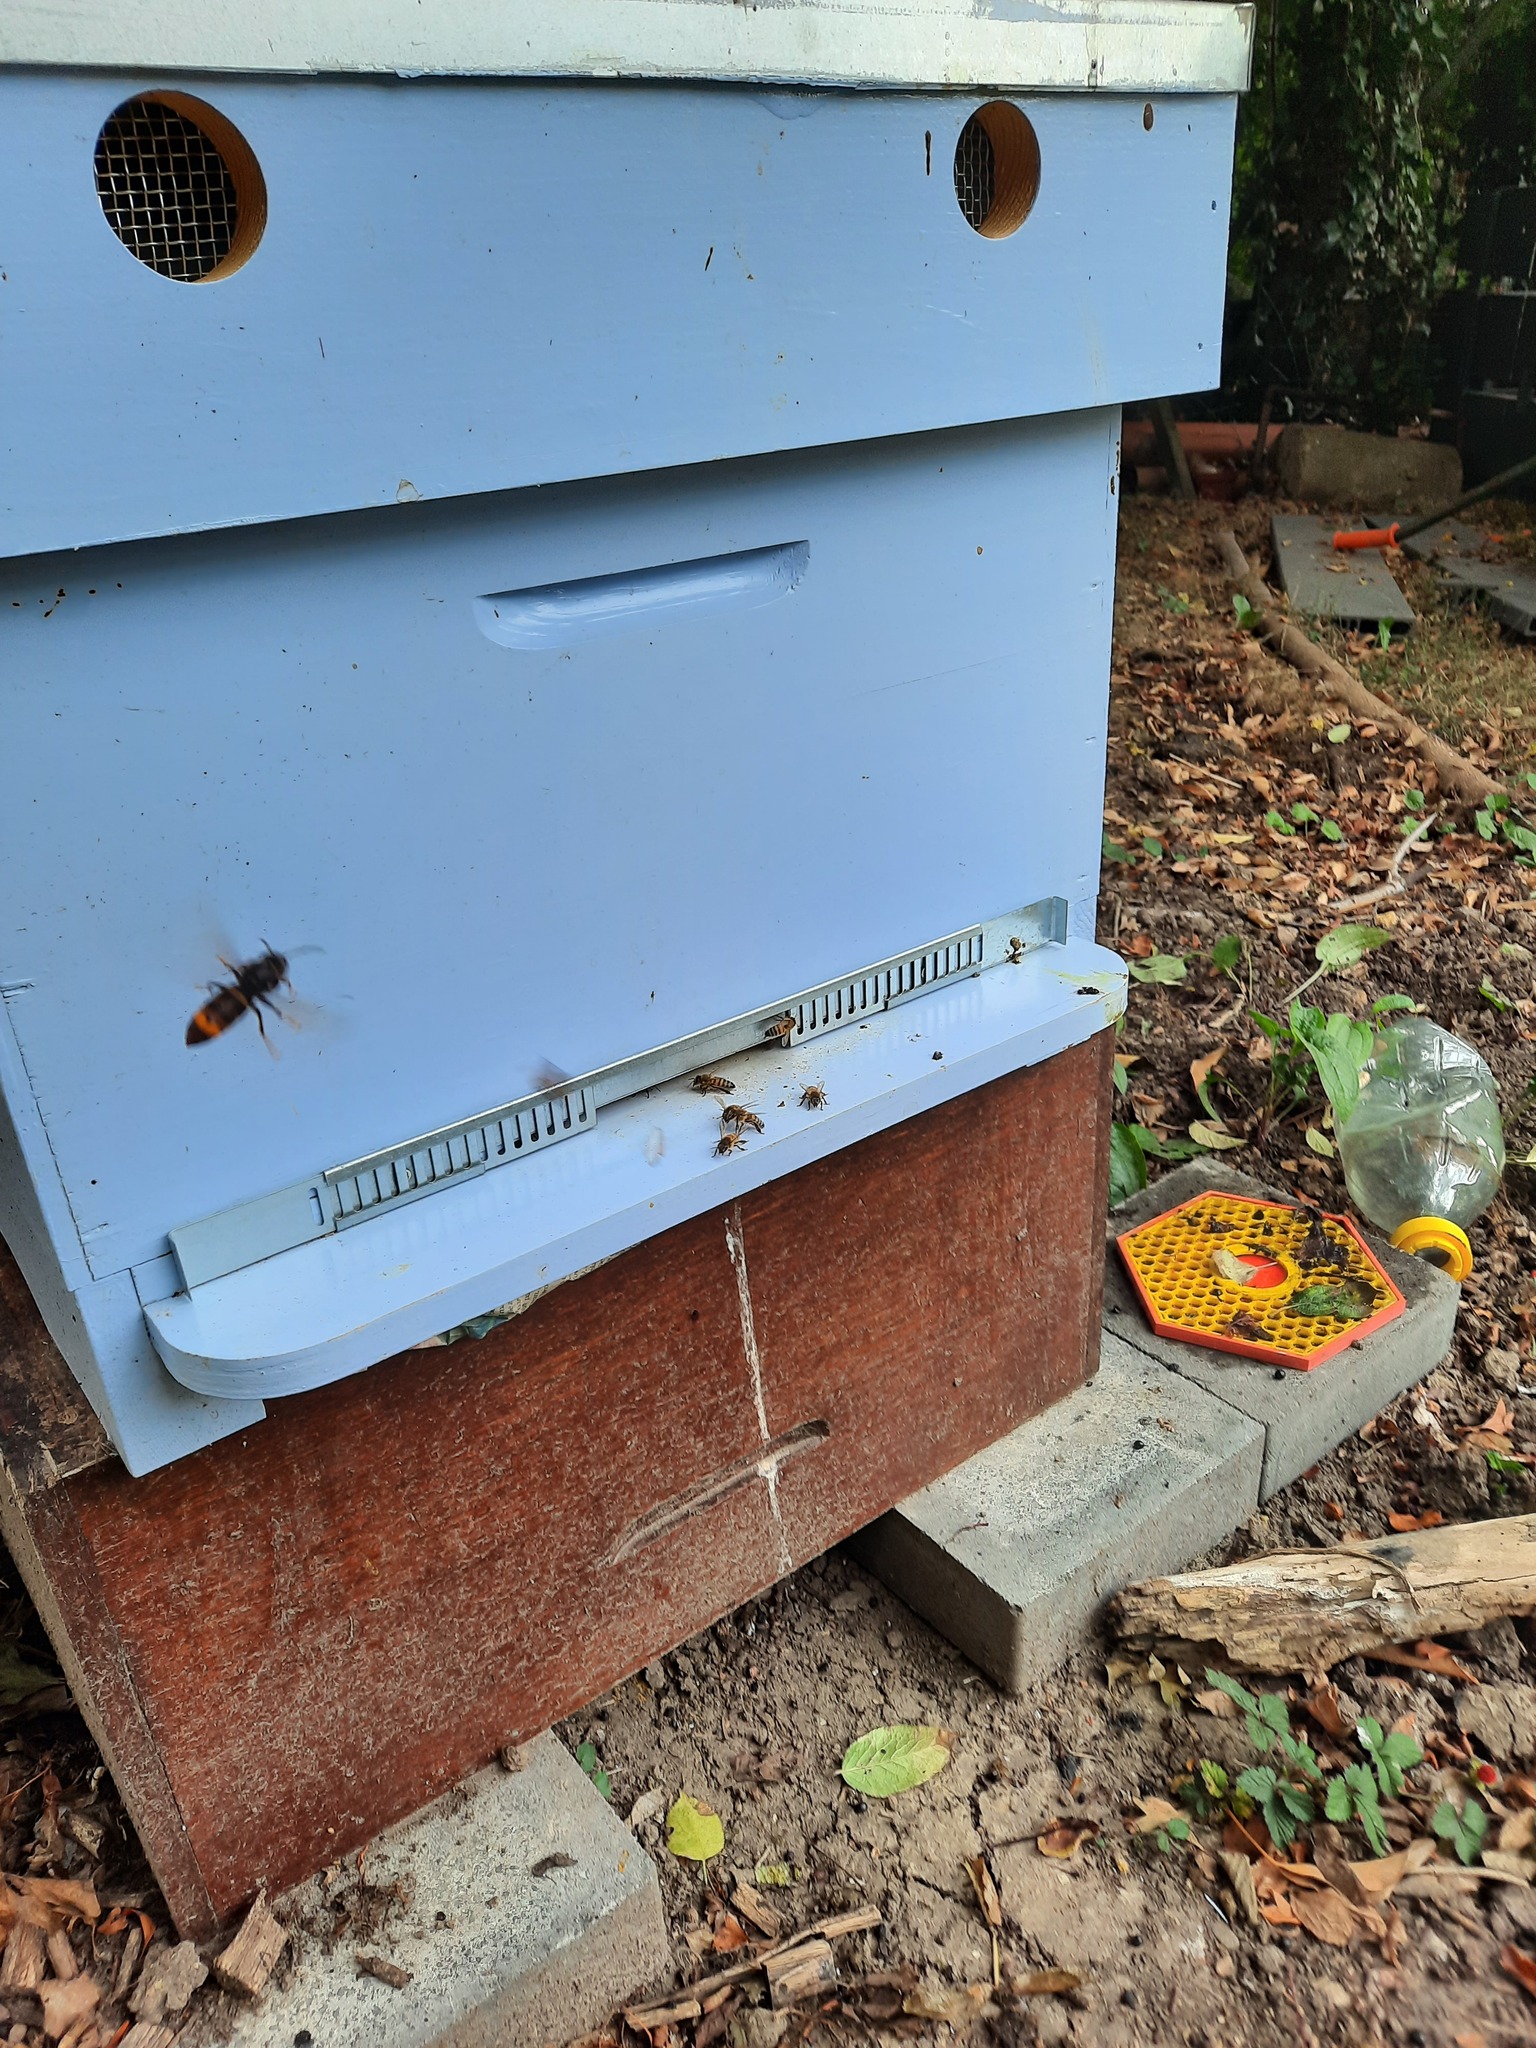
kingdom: Animalia
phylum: Arthropoda
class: Insecta
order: Hymenoptera
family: Vespidae
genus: Vespa
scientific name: Vespa velutina
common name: Asian hornet
